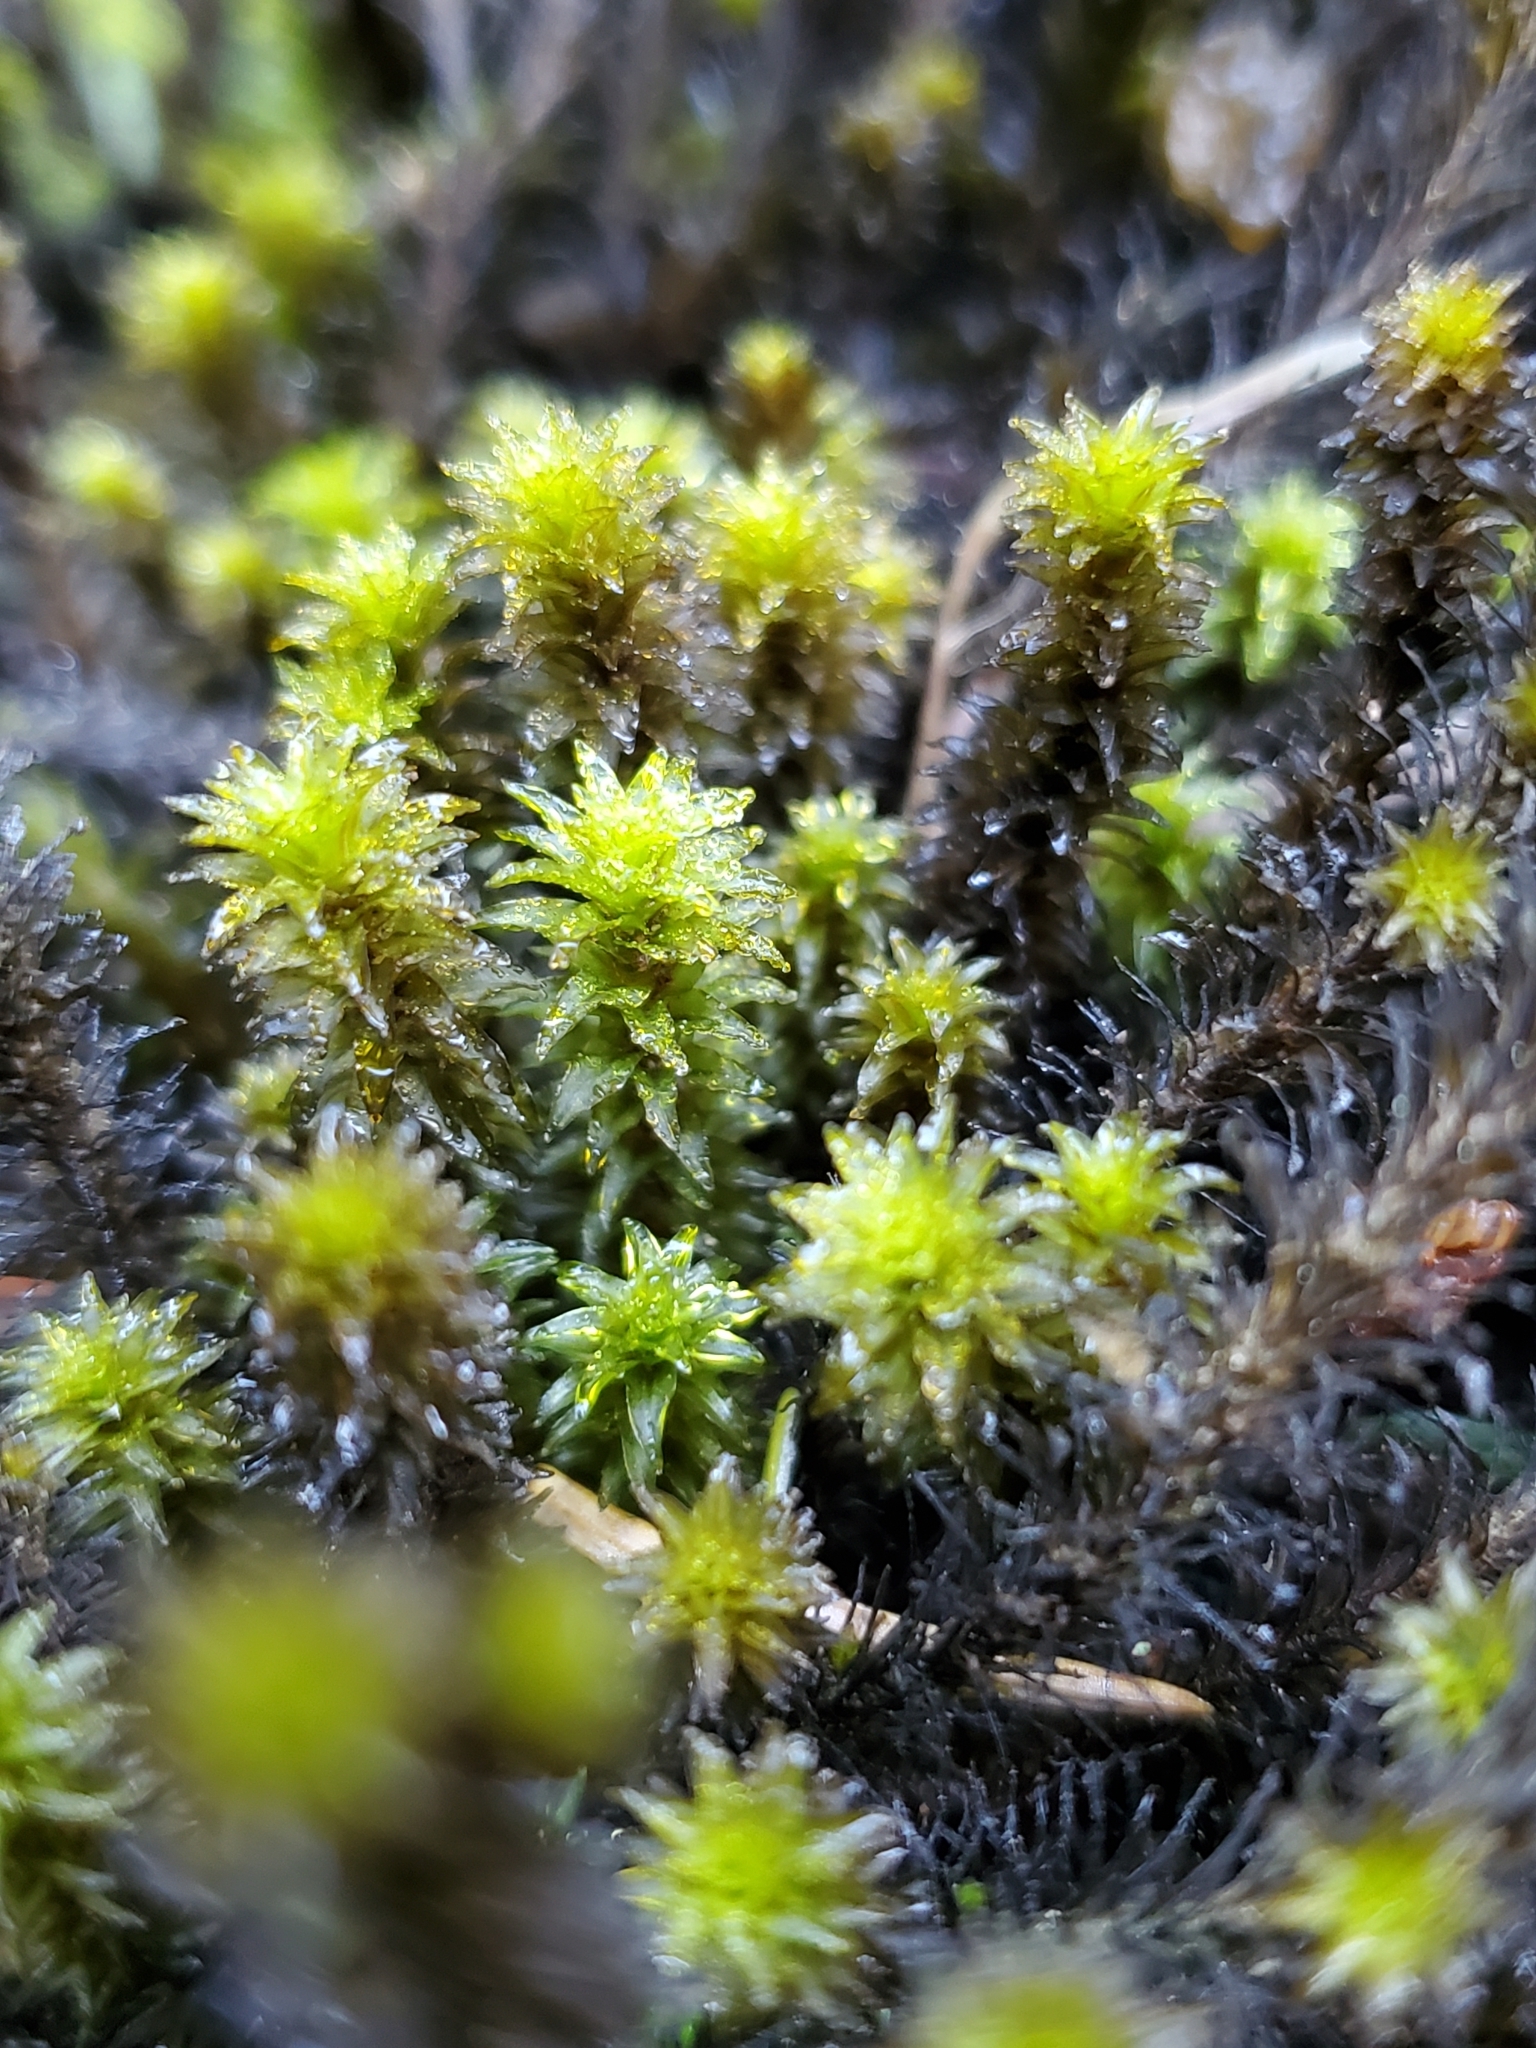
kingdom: Plantae
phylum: Bryophyta
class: Bryopsida
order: Scouleriales
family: Scouleriaceae
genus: Scouleria
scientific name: Scouleria aquatica
